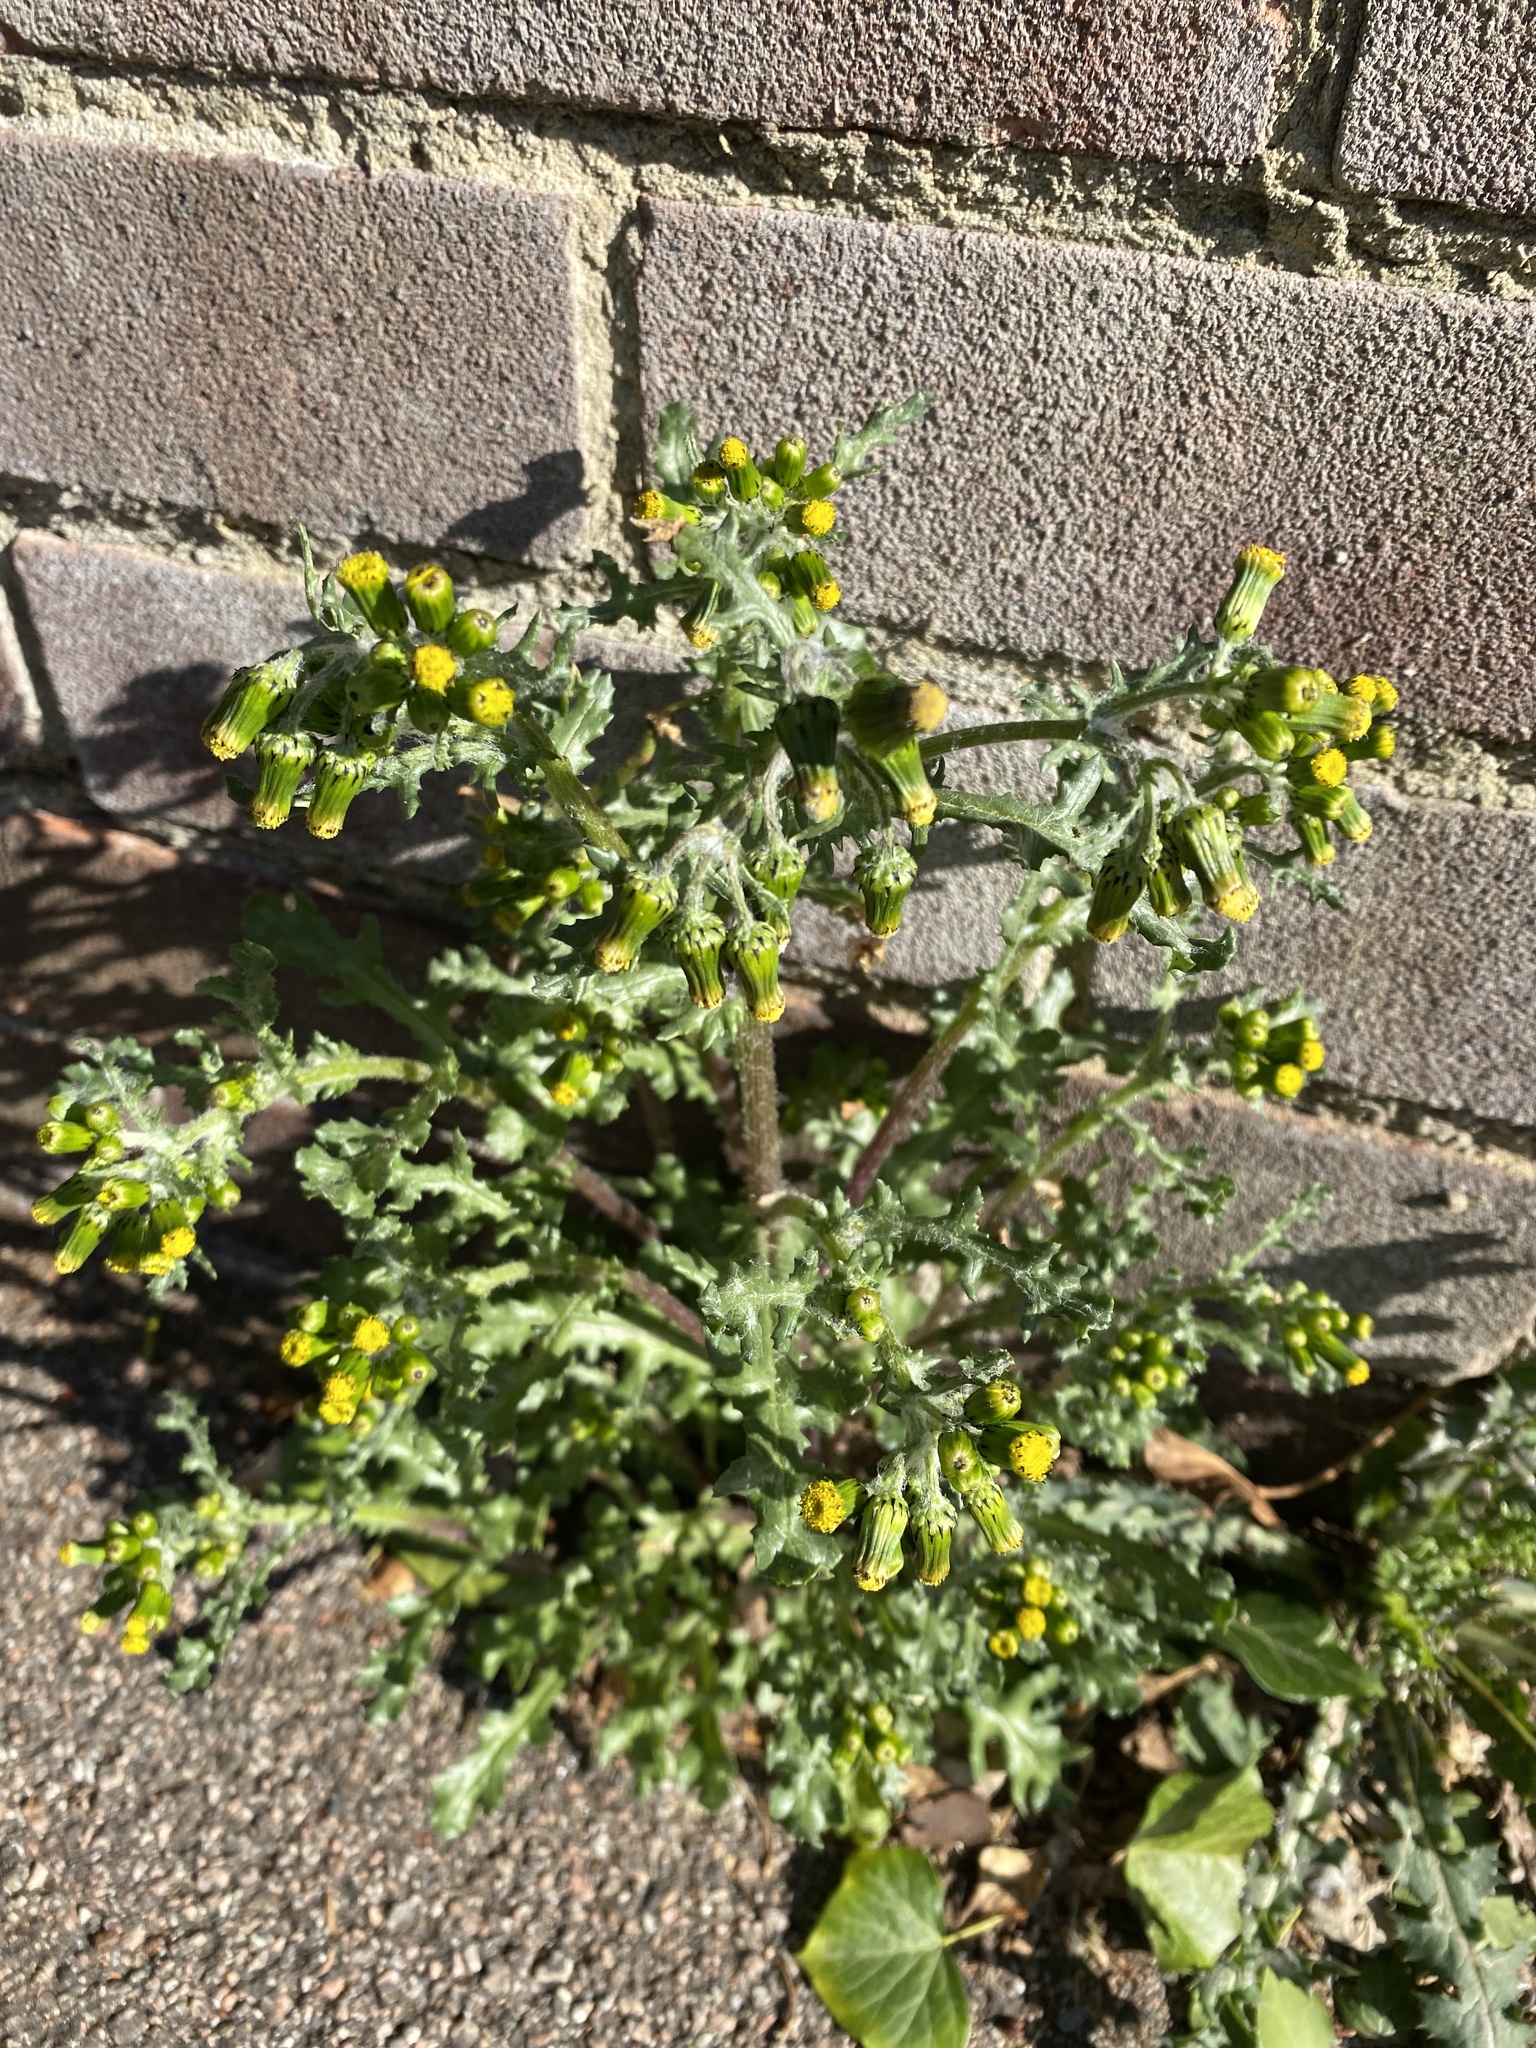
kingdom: Plantae
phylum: Tracheophyta
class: Magnoliopsida
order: Asterales
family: Asteraceae
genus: Senecio
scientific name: Senecio vulgaris
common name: Old-man-in-the-spring
